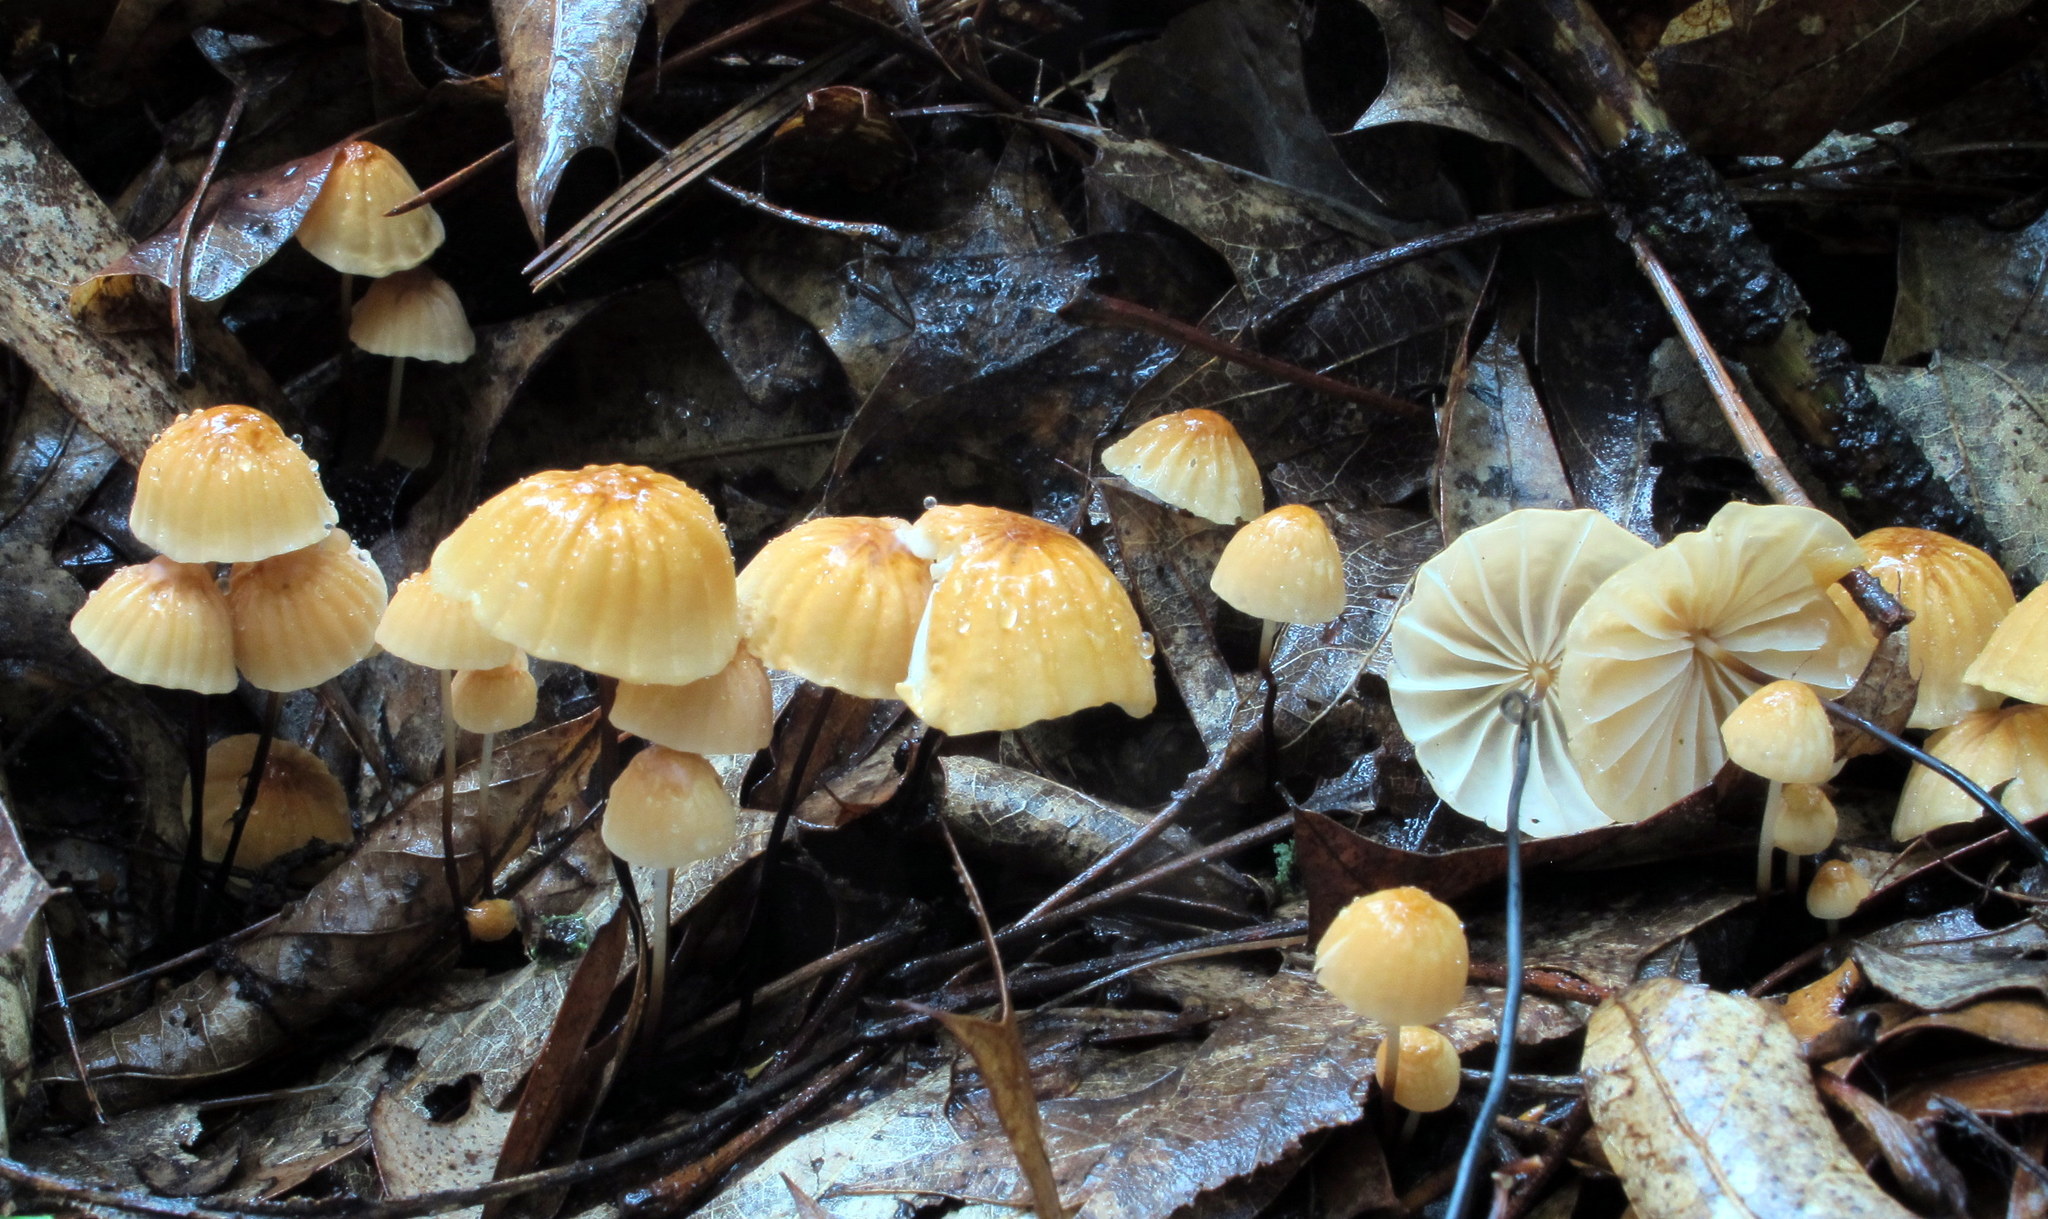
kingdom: Fungi
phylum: Basidiomycota
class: Agaricomycetes
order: Agaricales
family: Marasmiaceae
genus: Marasmius
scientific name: Marasmius siccus
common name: Orange pinwheel
